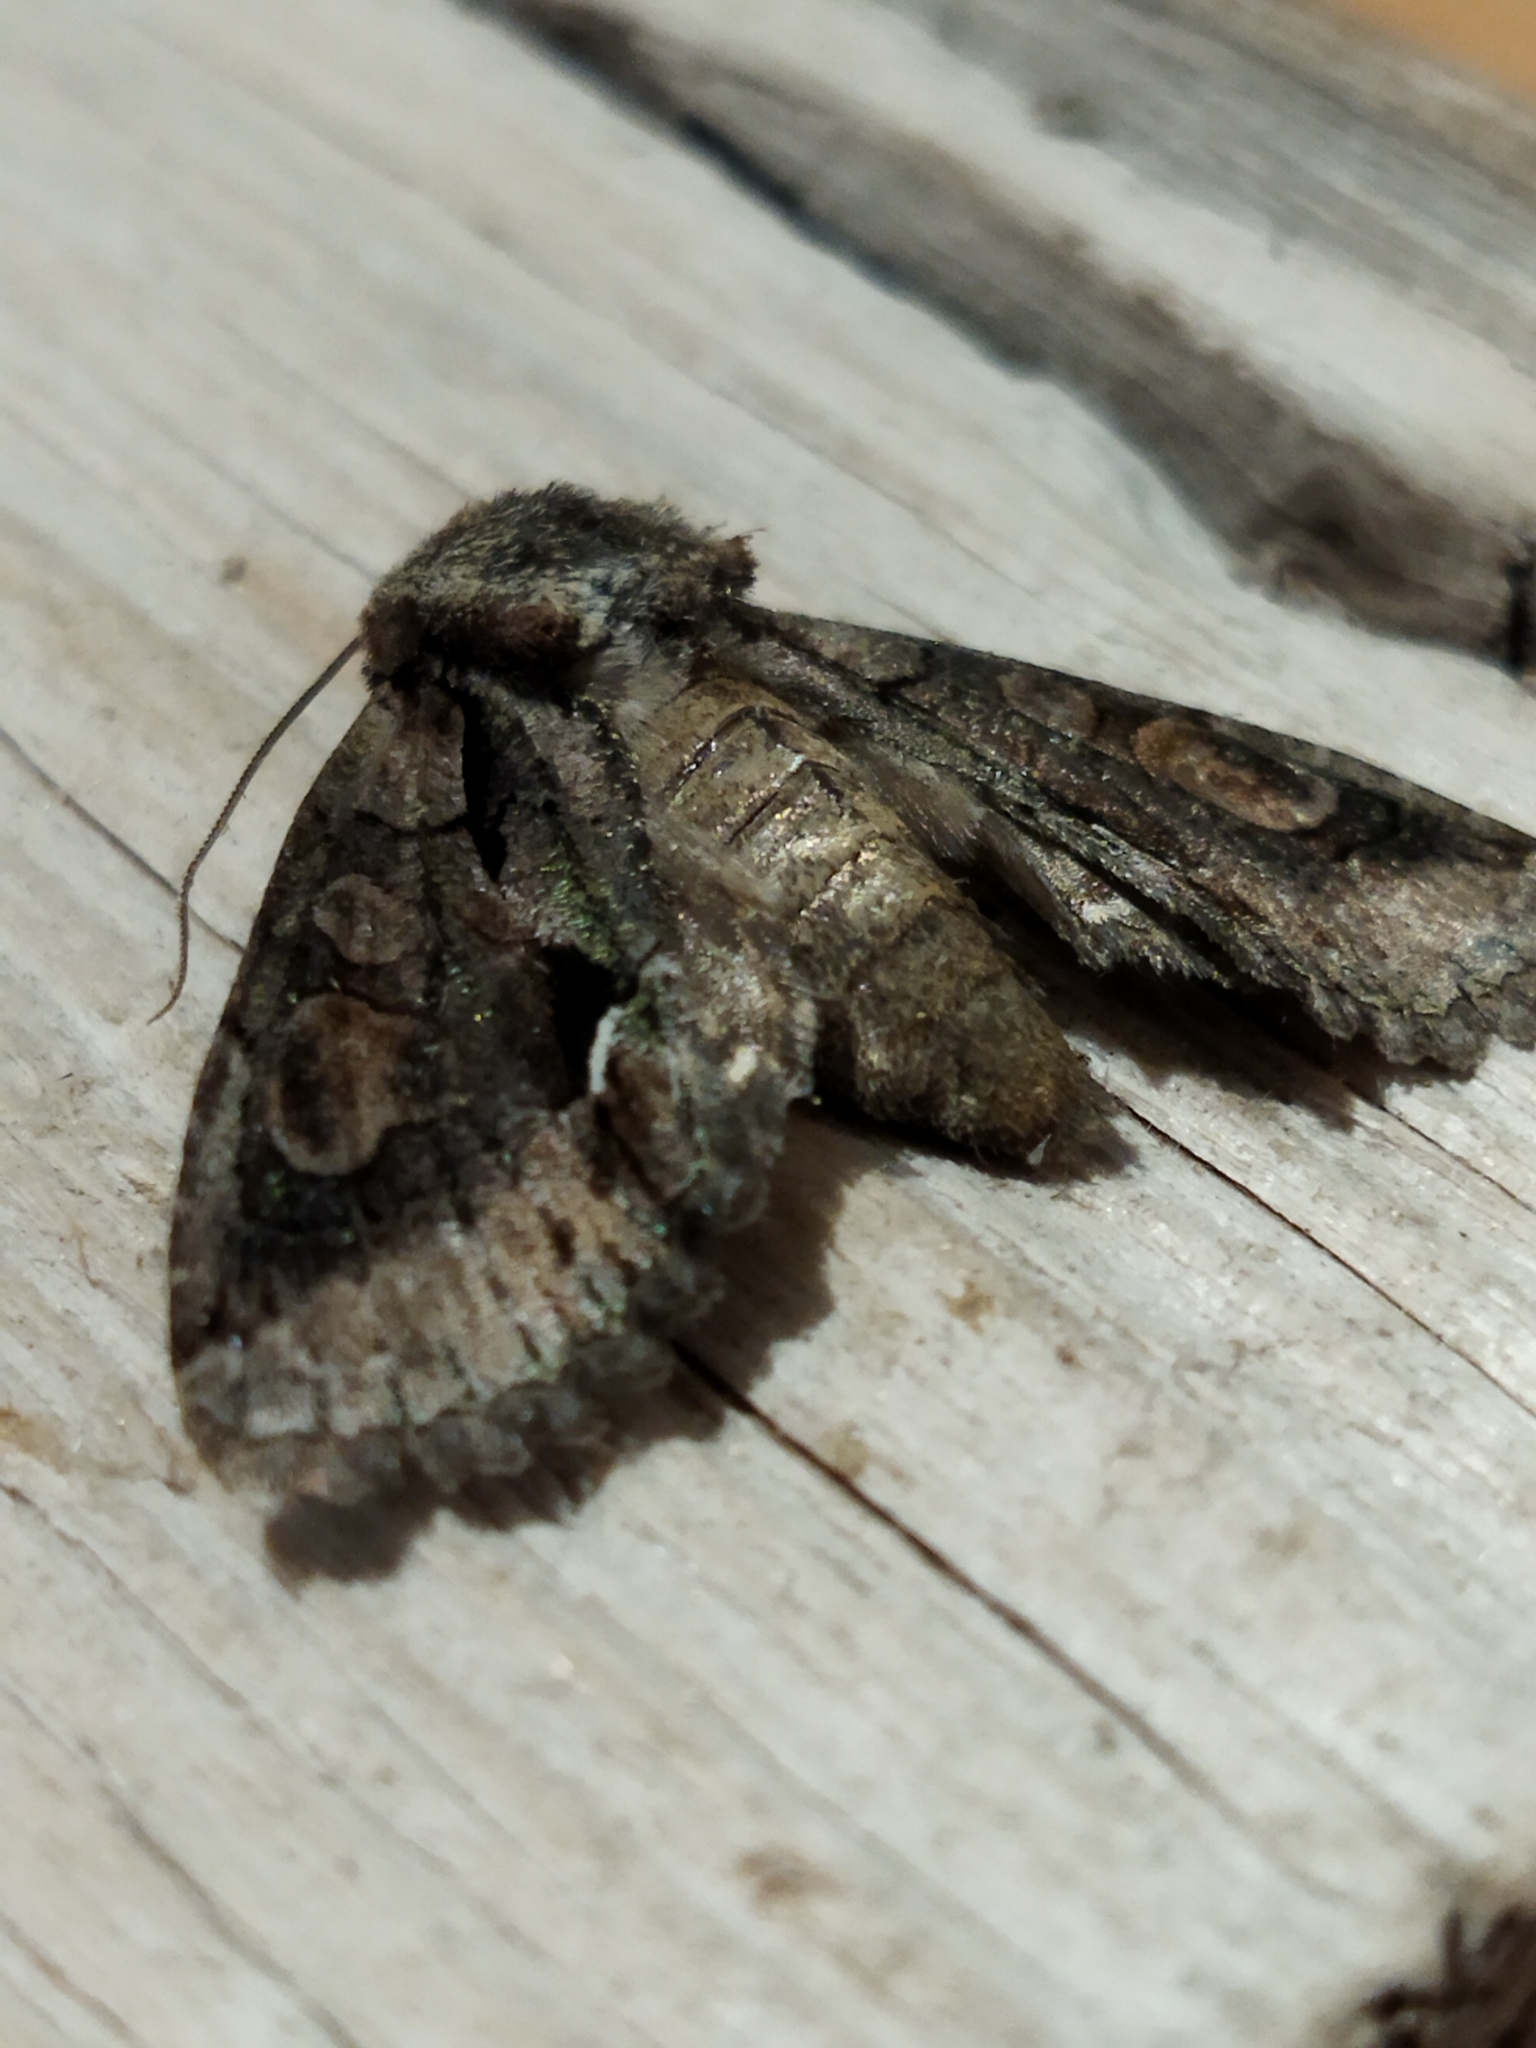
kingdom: Animalia
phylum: Arthropoda
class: Insecta
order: Lepidoptera
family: Noctuidae
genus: Allophyes
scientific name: Allophyes oxyacanthae
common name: Green-brindled crescent
